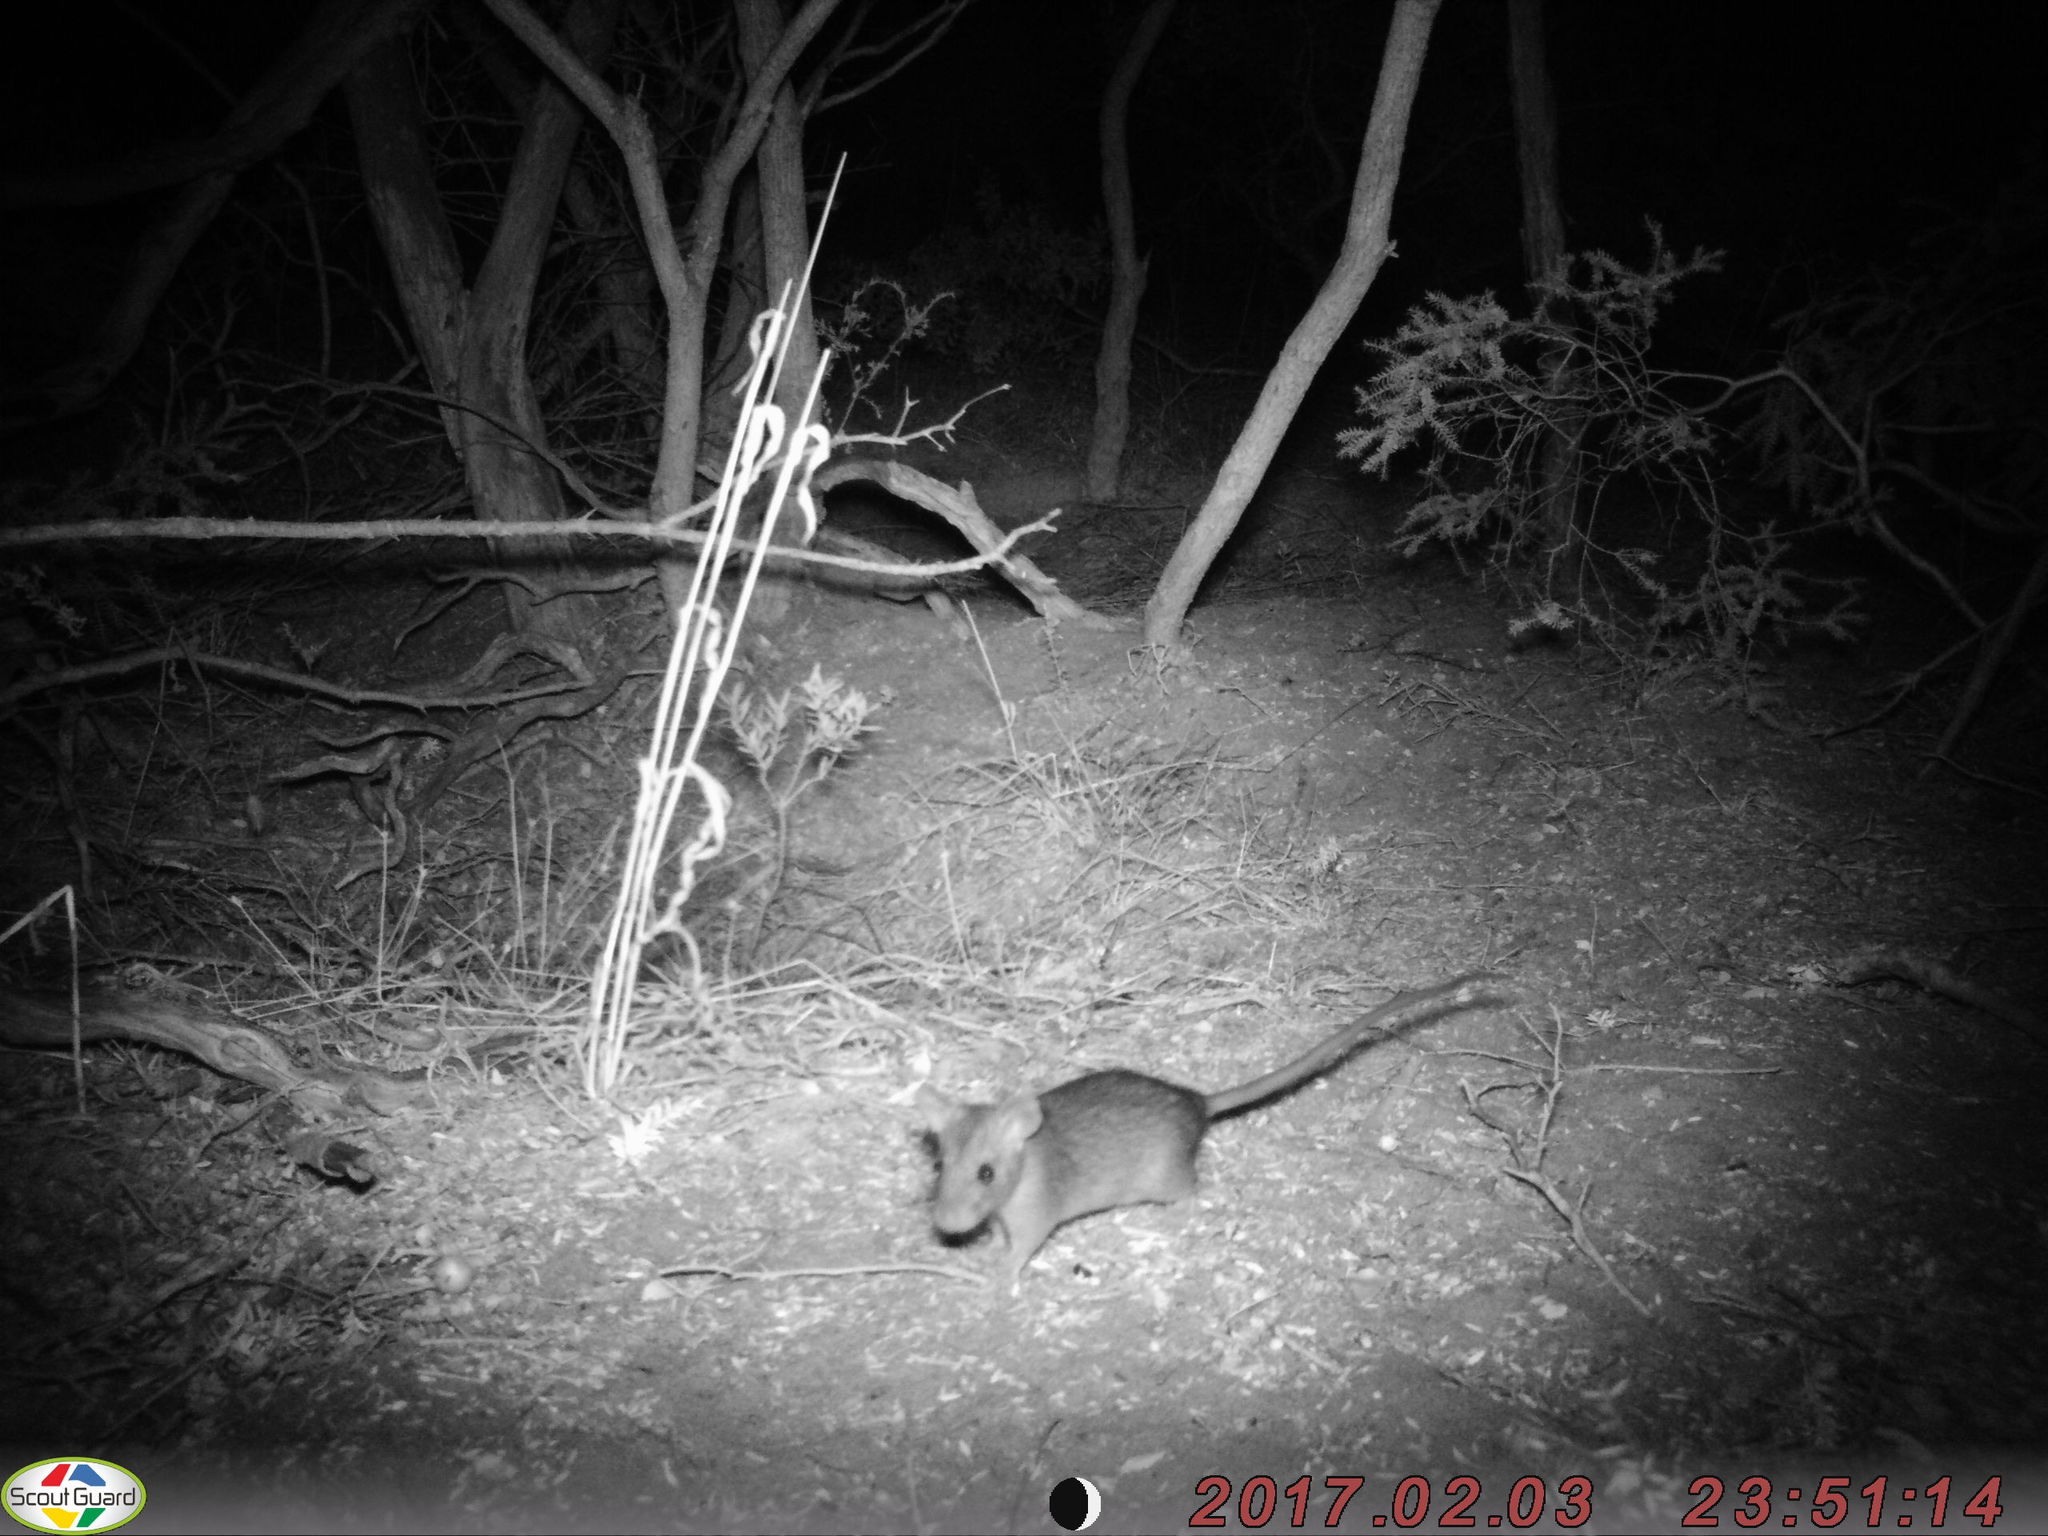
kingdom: Animalia
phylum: Chordata
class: Mammalia
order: Rodentia
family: Muridae
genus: Rattus
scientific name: Rattus rattus
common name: Black rat
